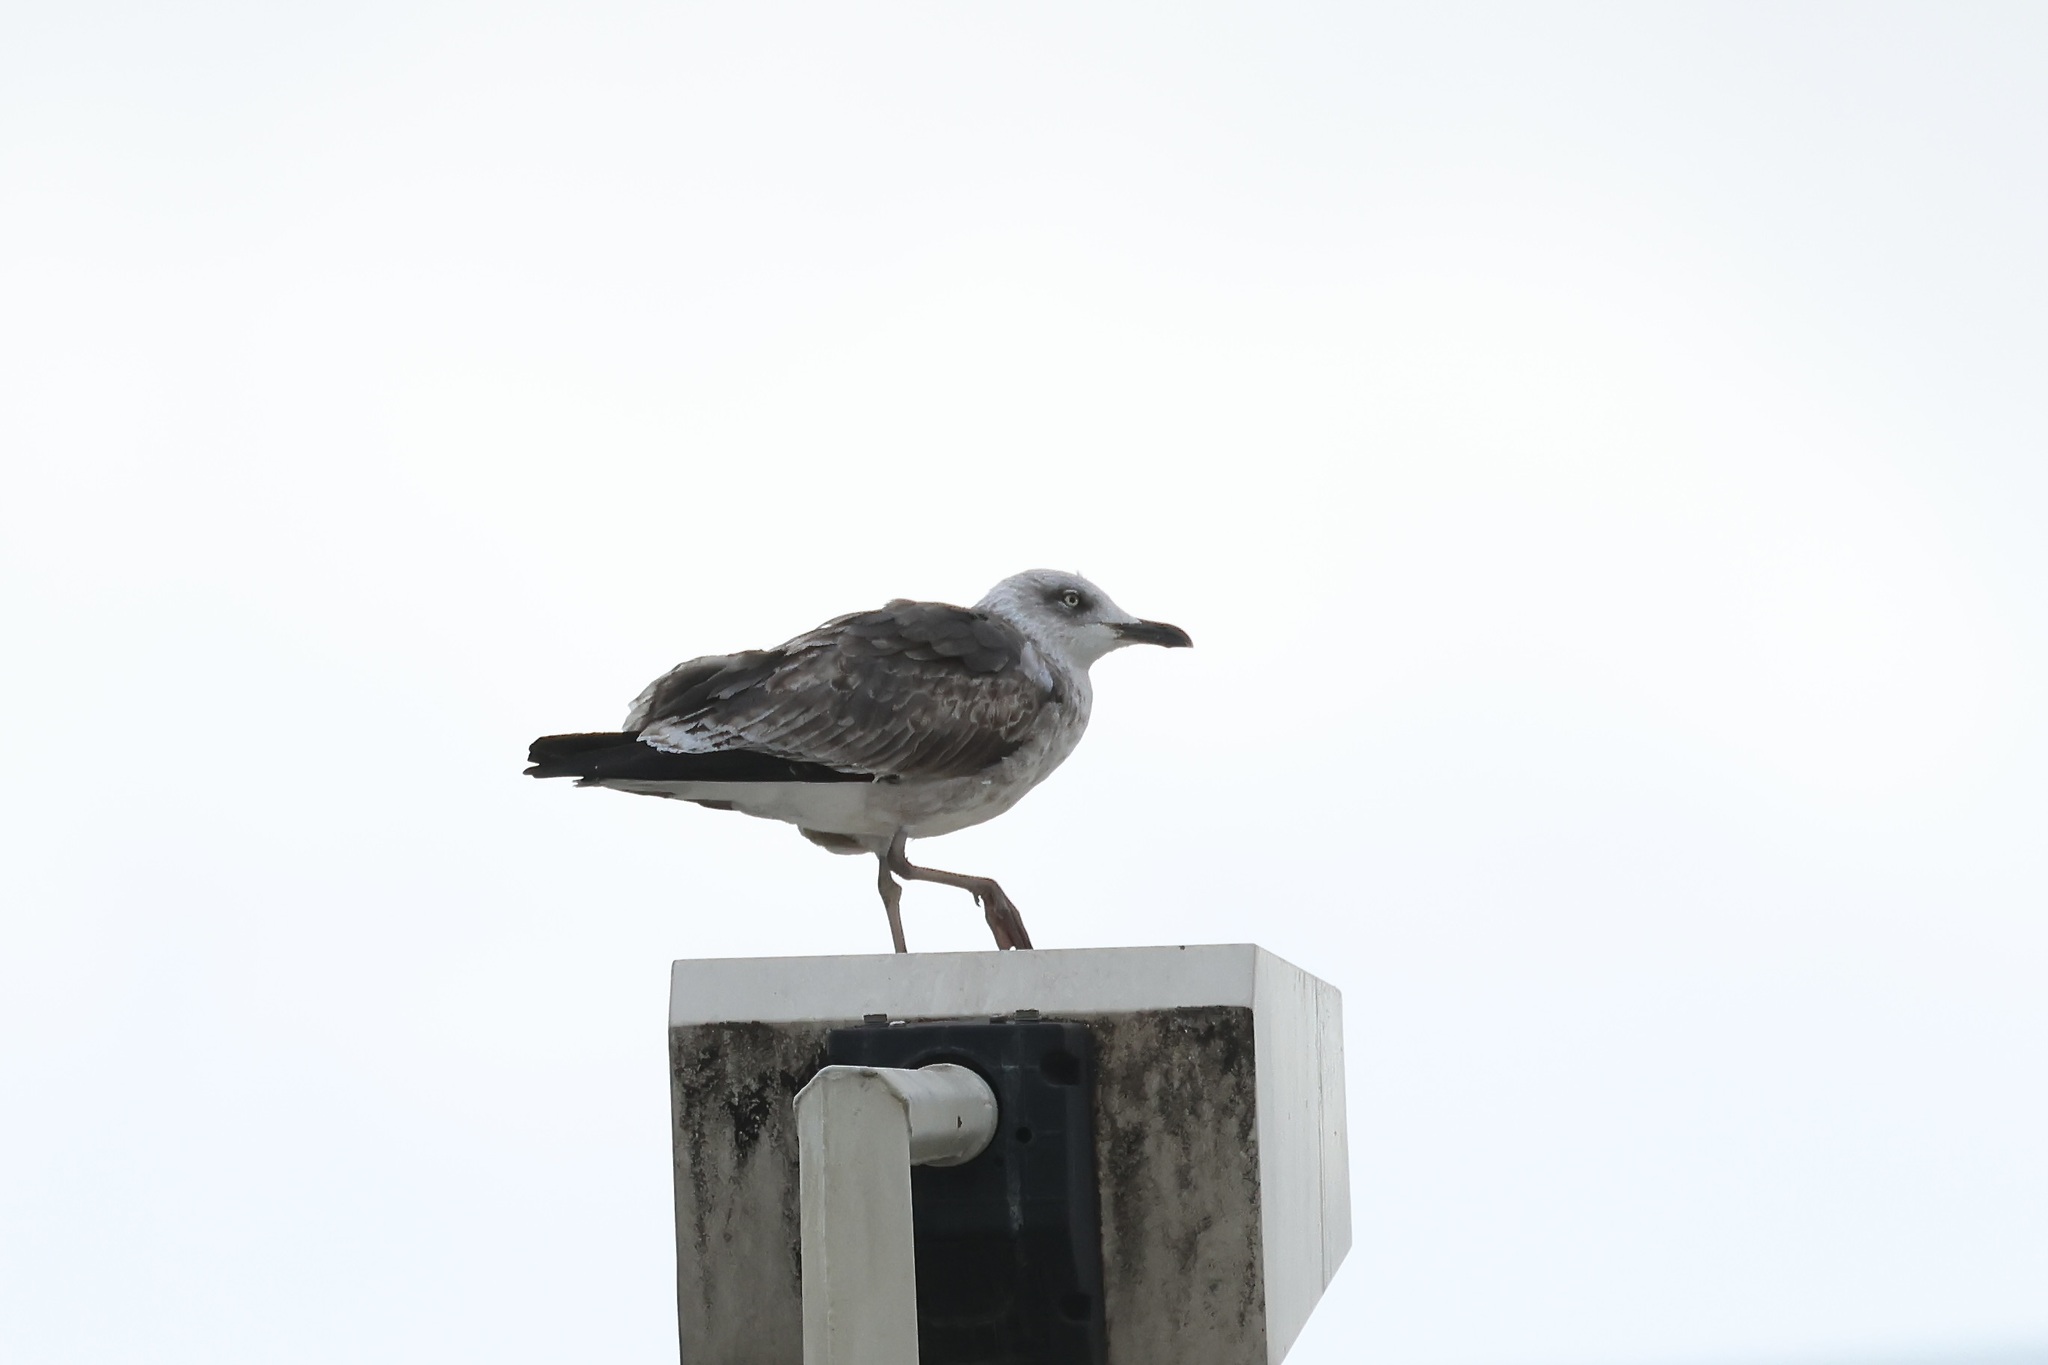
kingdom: Animalia
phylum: Chordata
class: Aves
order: Charadriiformes
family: Laridae
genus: Larus
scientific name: Larus fuscus
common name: Lesser black-backed gull
